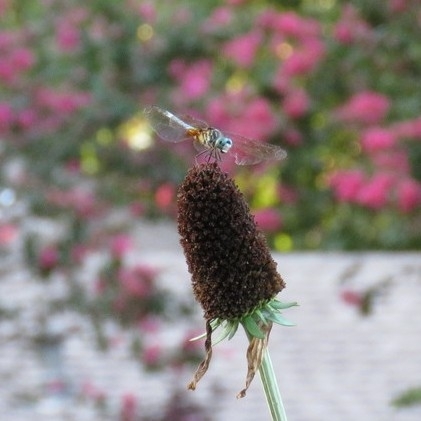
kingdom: Animalia
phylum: Arthropoda
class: Insecta
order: Odonata
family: Libellulidae
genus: Pachydiplax
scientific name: Pachydiplax longipennis
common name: Blue dasher
